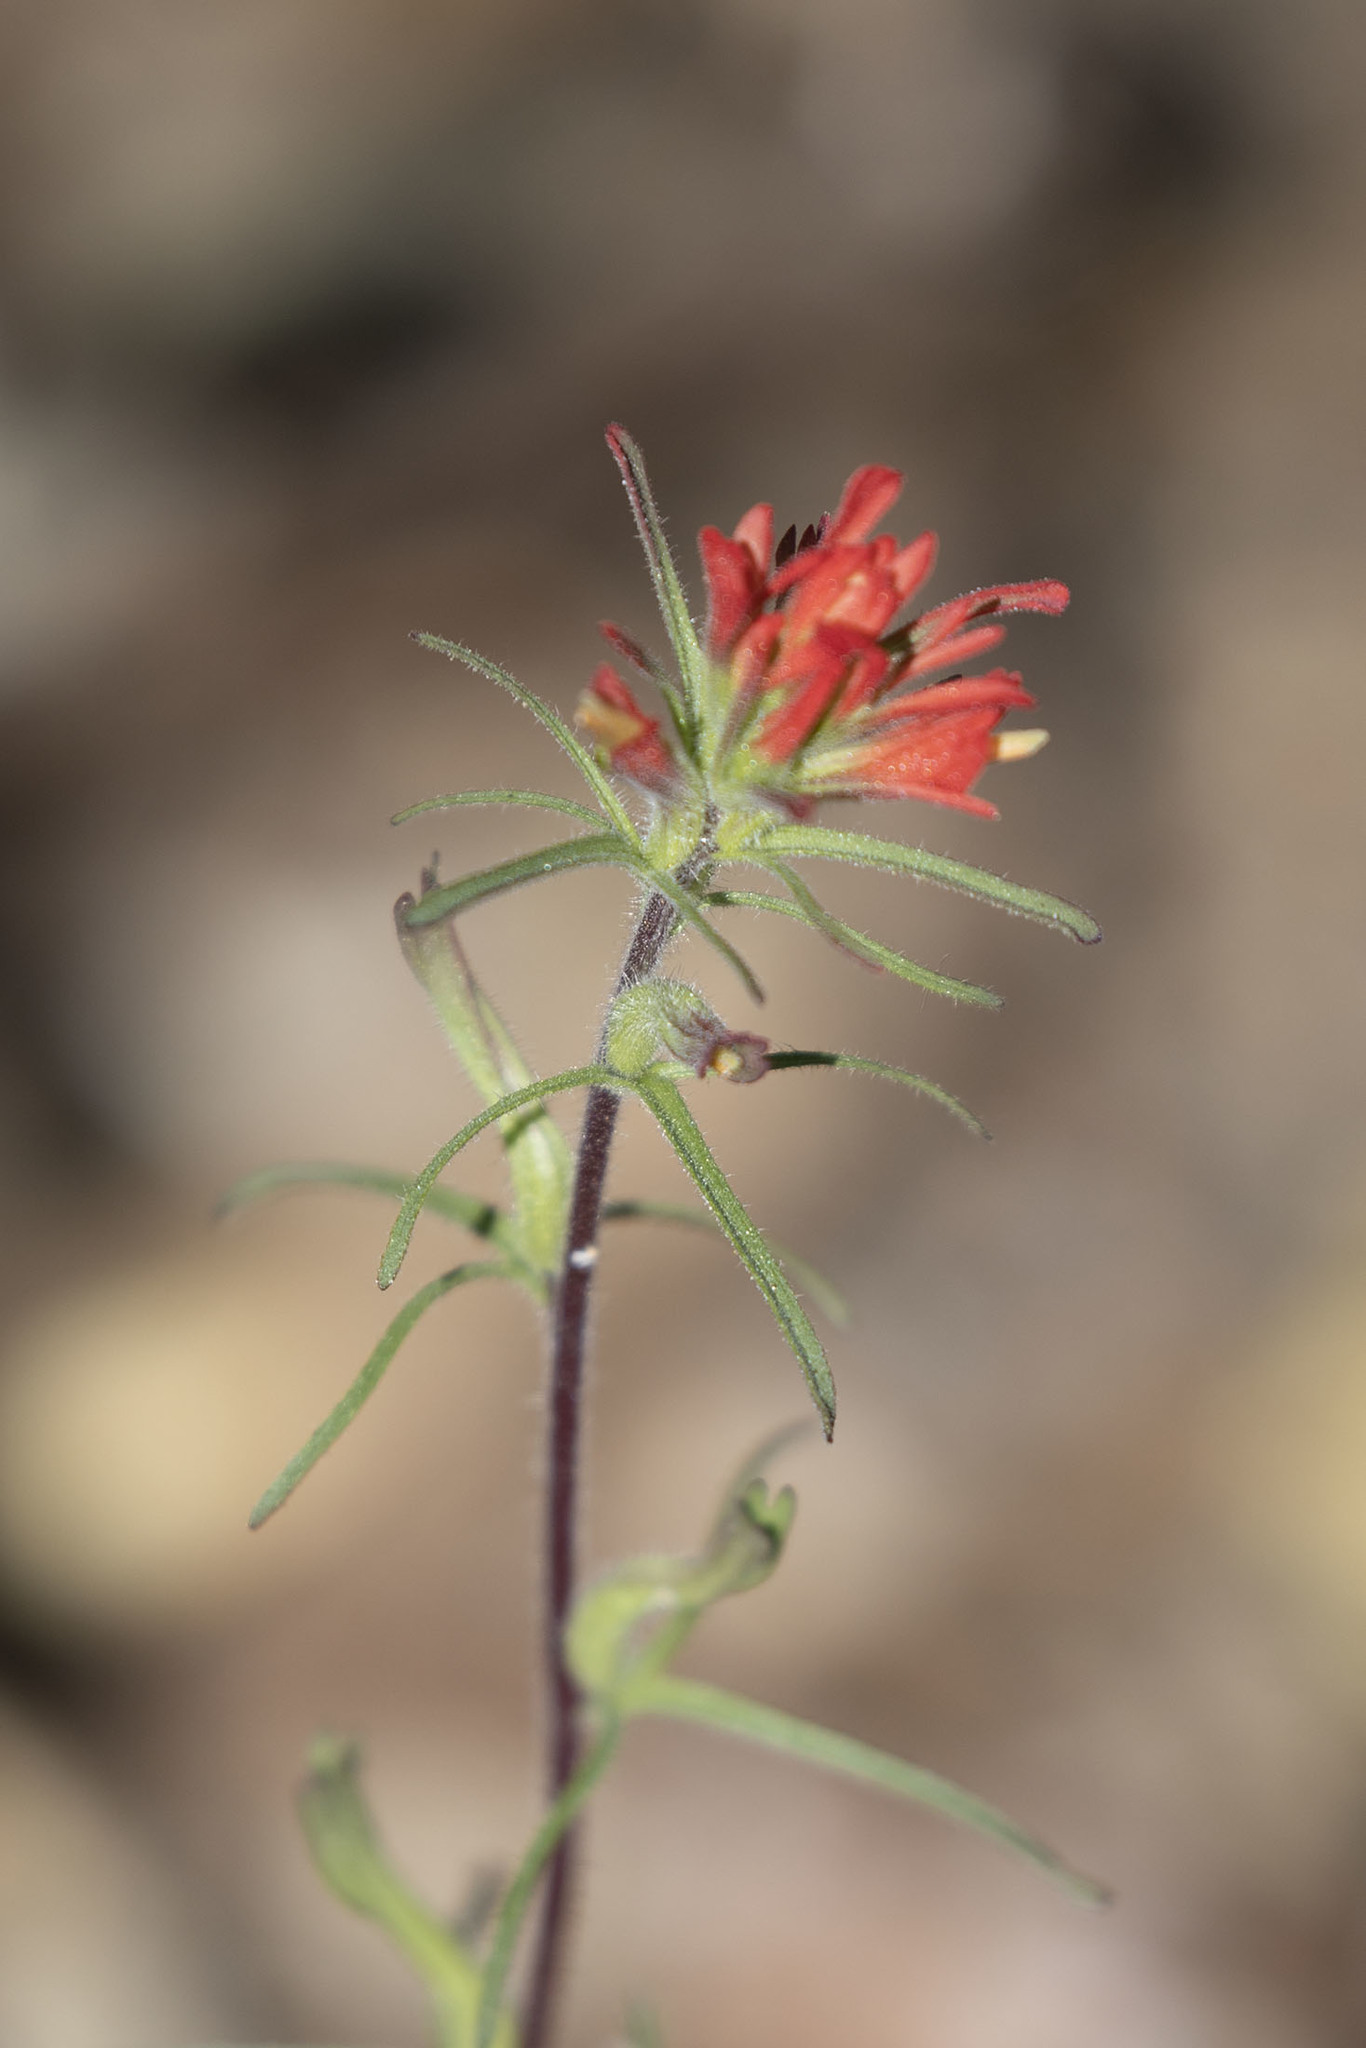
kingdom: Plantae
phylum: Tracheophyta
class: Magnoliopsida
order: Lamiales
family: Orobanchaceae
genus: Castilleja
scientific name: Castilleja bryantii
